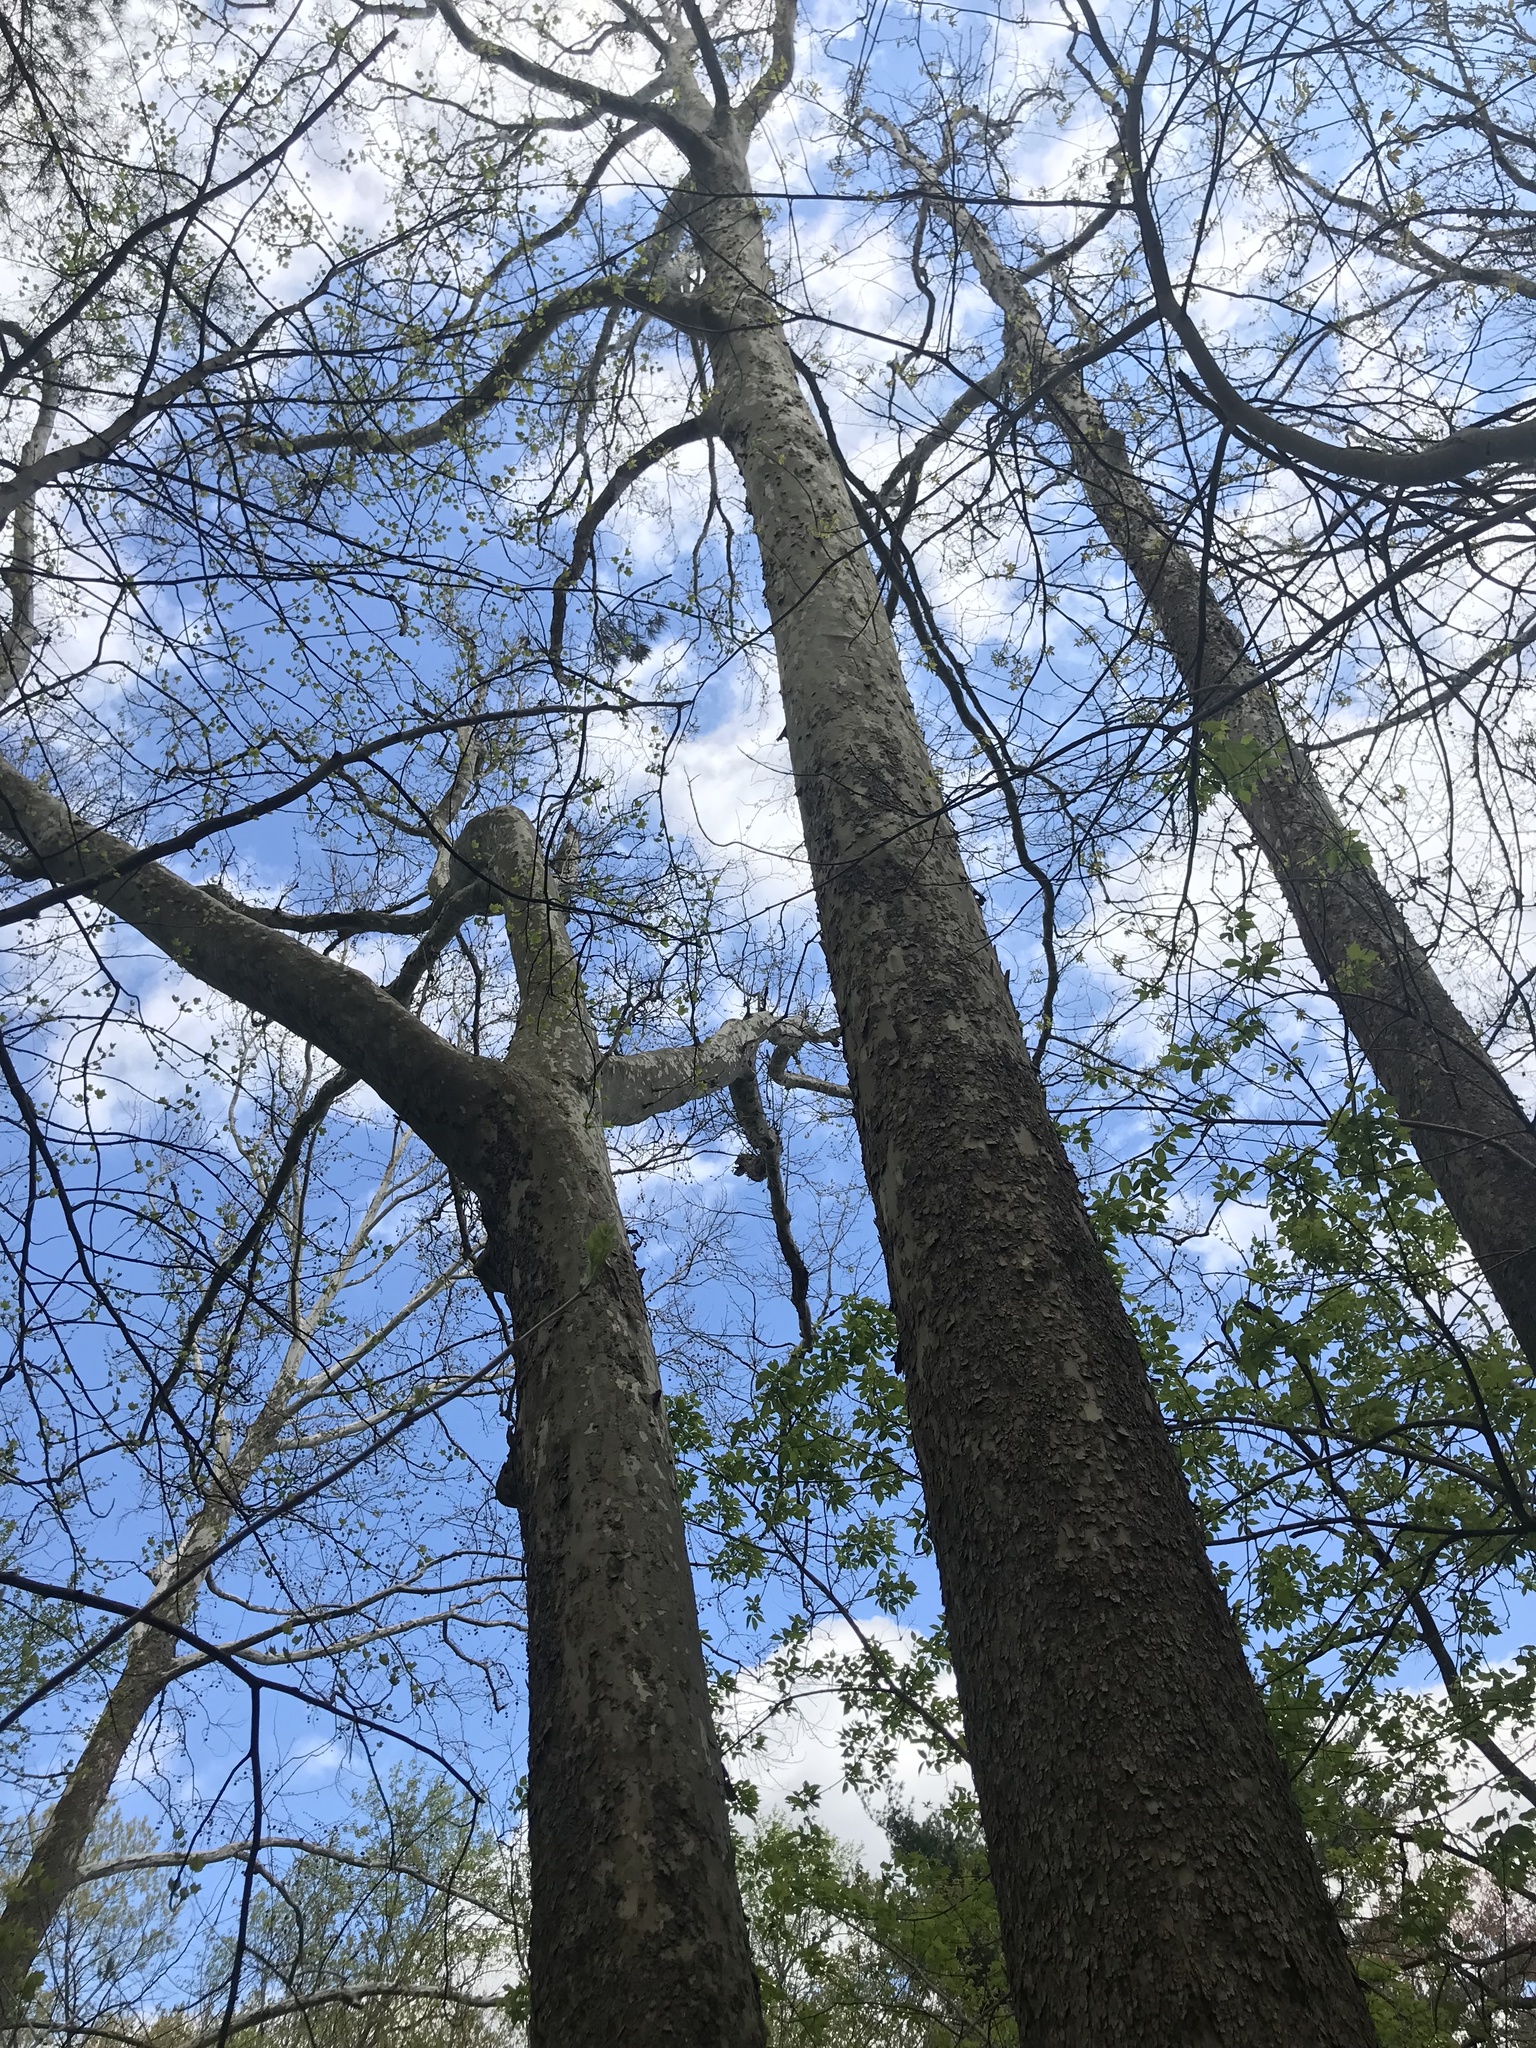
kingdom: Plantae
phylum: Tracheophyta
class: Magnoliopsida
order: Proteales
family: Platanaceae
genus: Platanus
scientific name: Platanus occidentalis
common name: American sycamore
